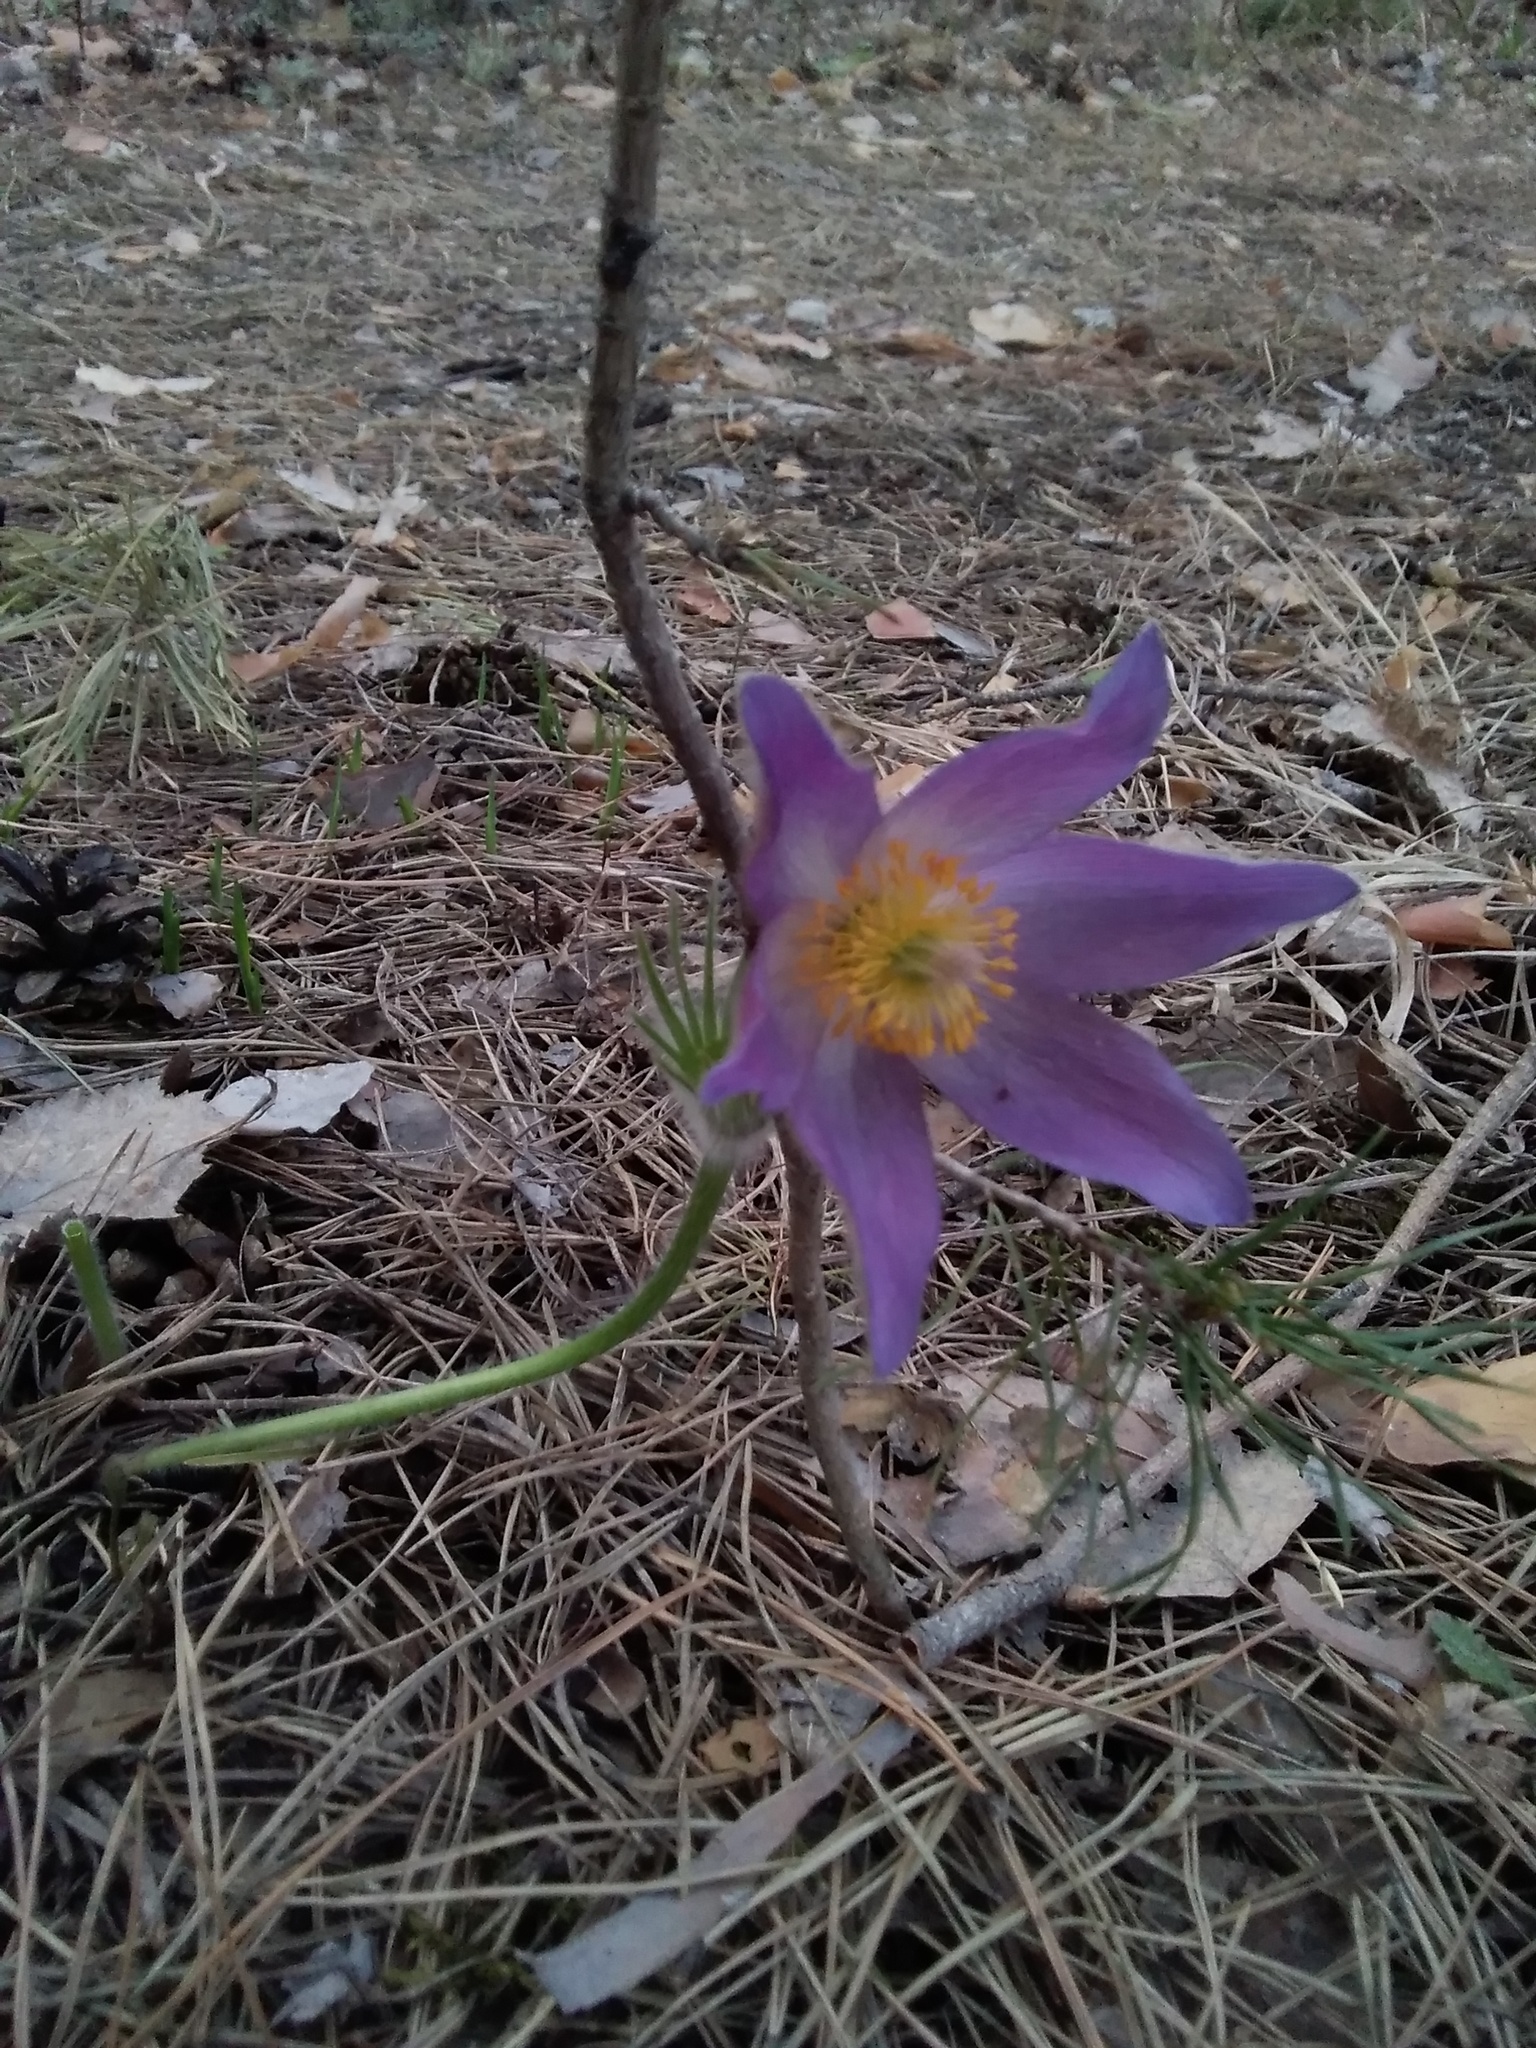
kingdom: Plantae
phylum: Tracheophyta
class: Magnoliopsida
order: Ranunculales
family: Ranunculaceae
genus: Pulsatilla
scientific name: Pulsatilla patens
